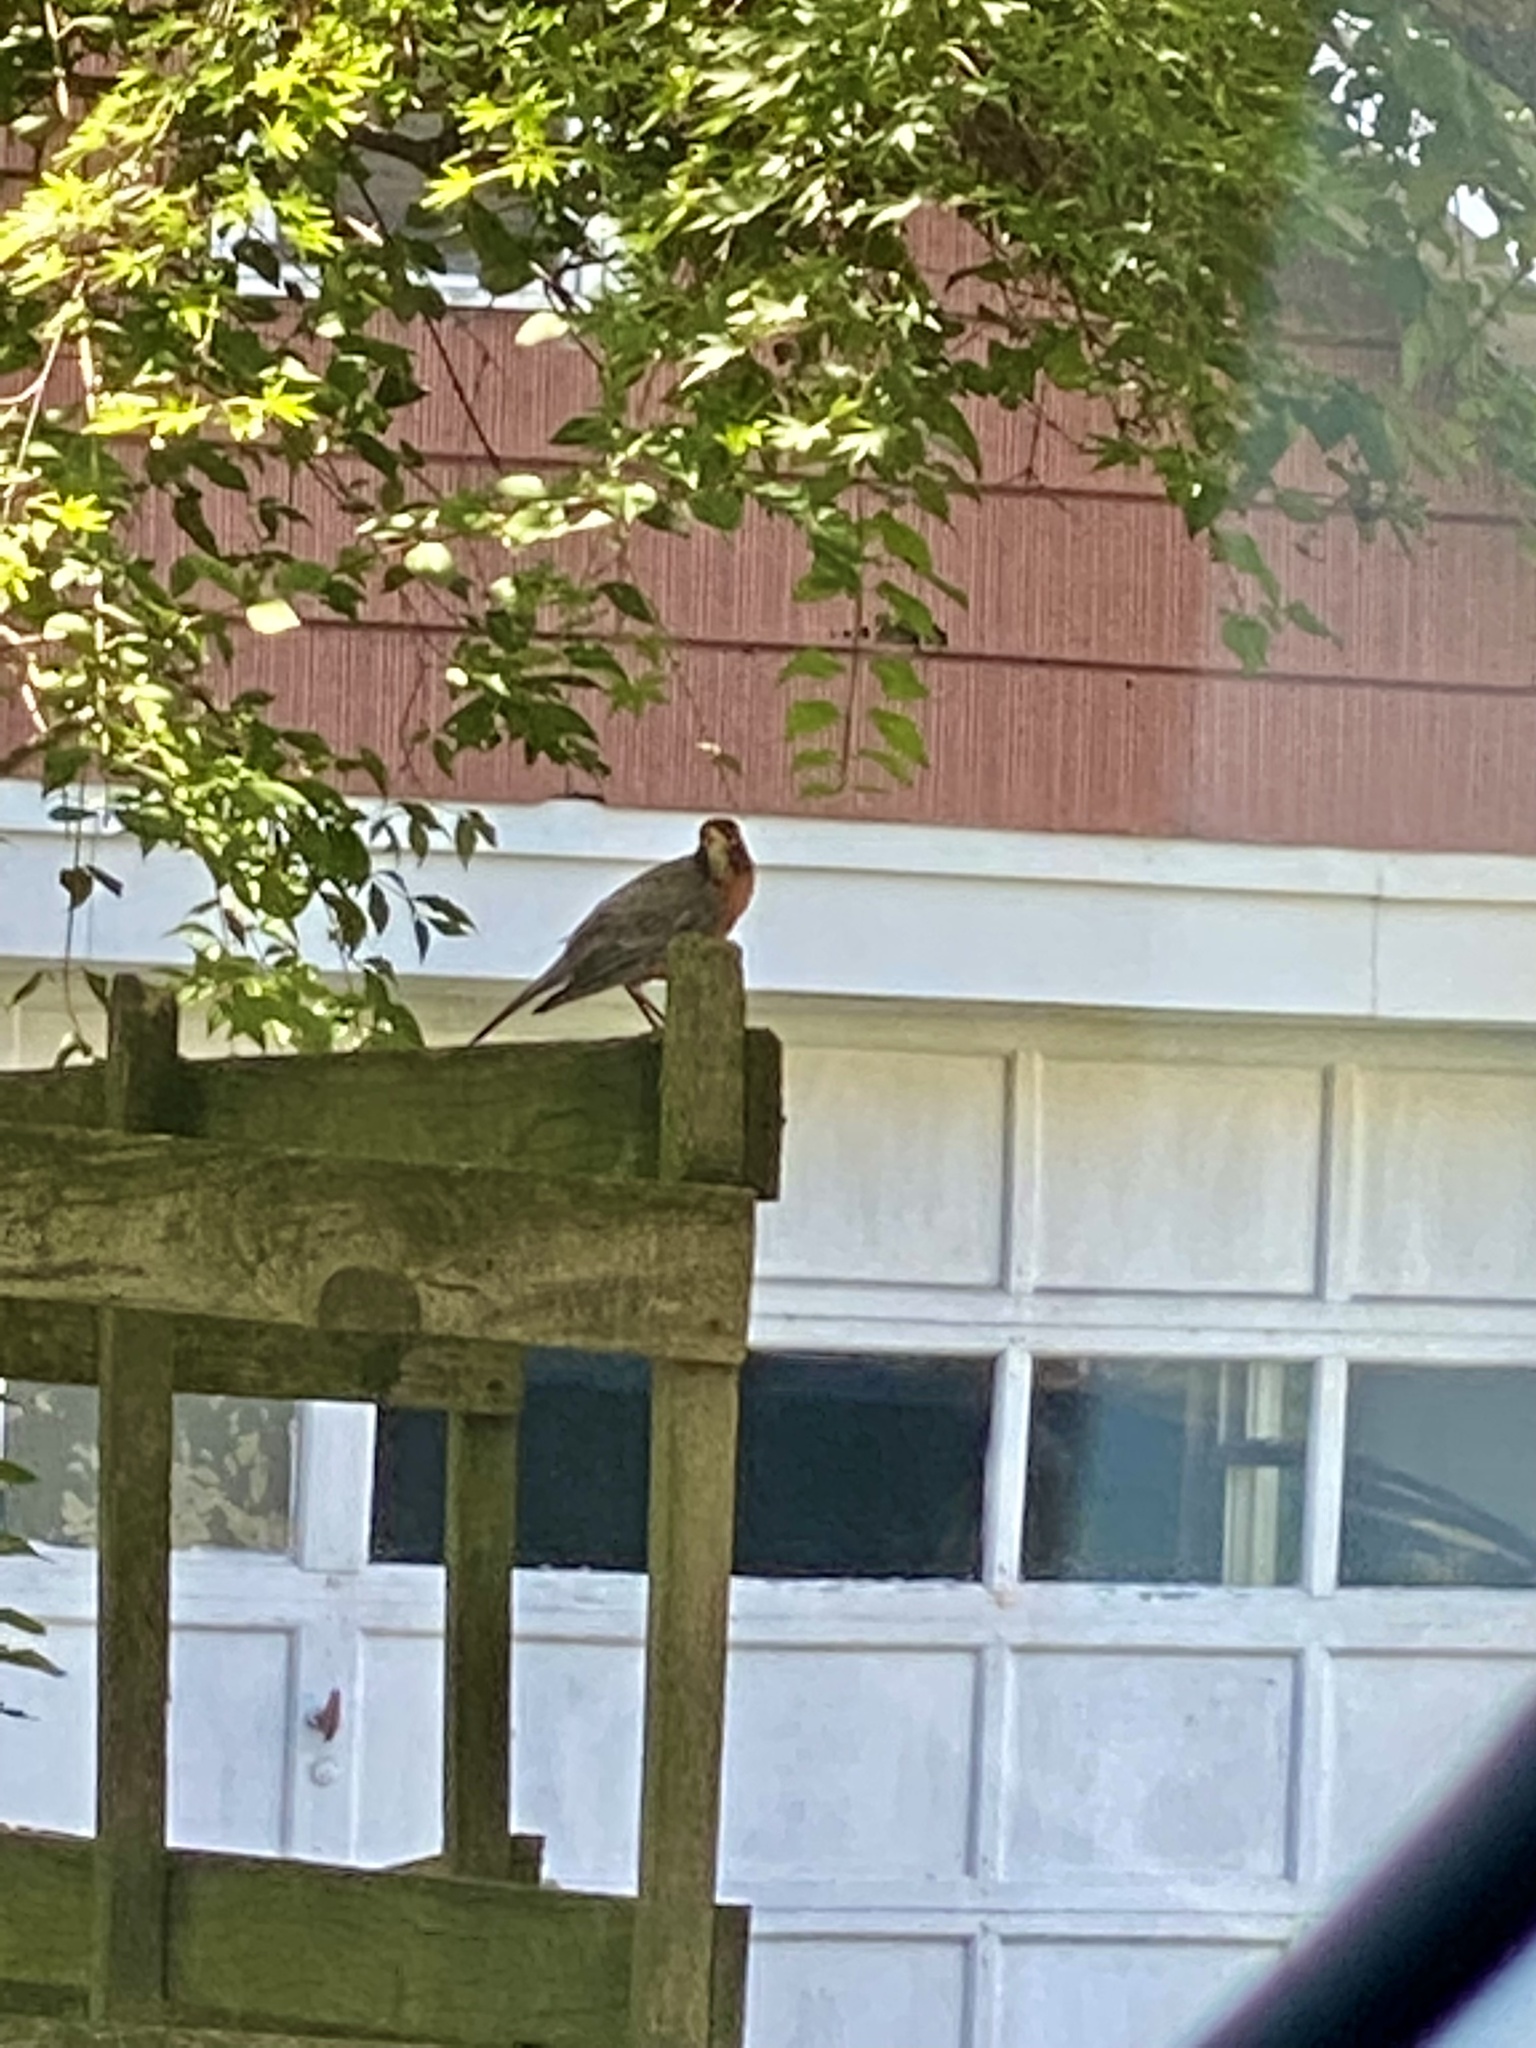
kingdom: Animalia
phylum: Chordata
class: Aves
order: Passeriformes
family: Turdidae
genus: Turdus
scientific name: Turdus migratorius
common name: American robin
